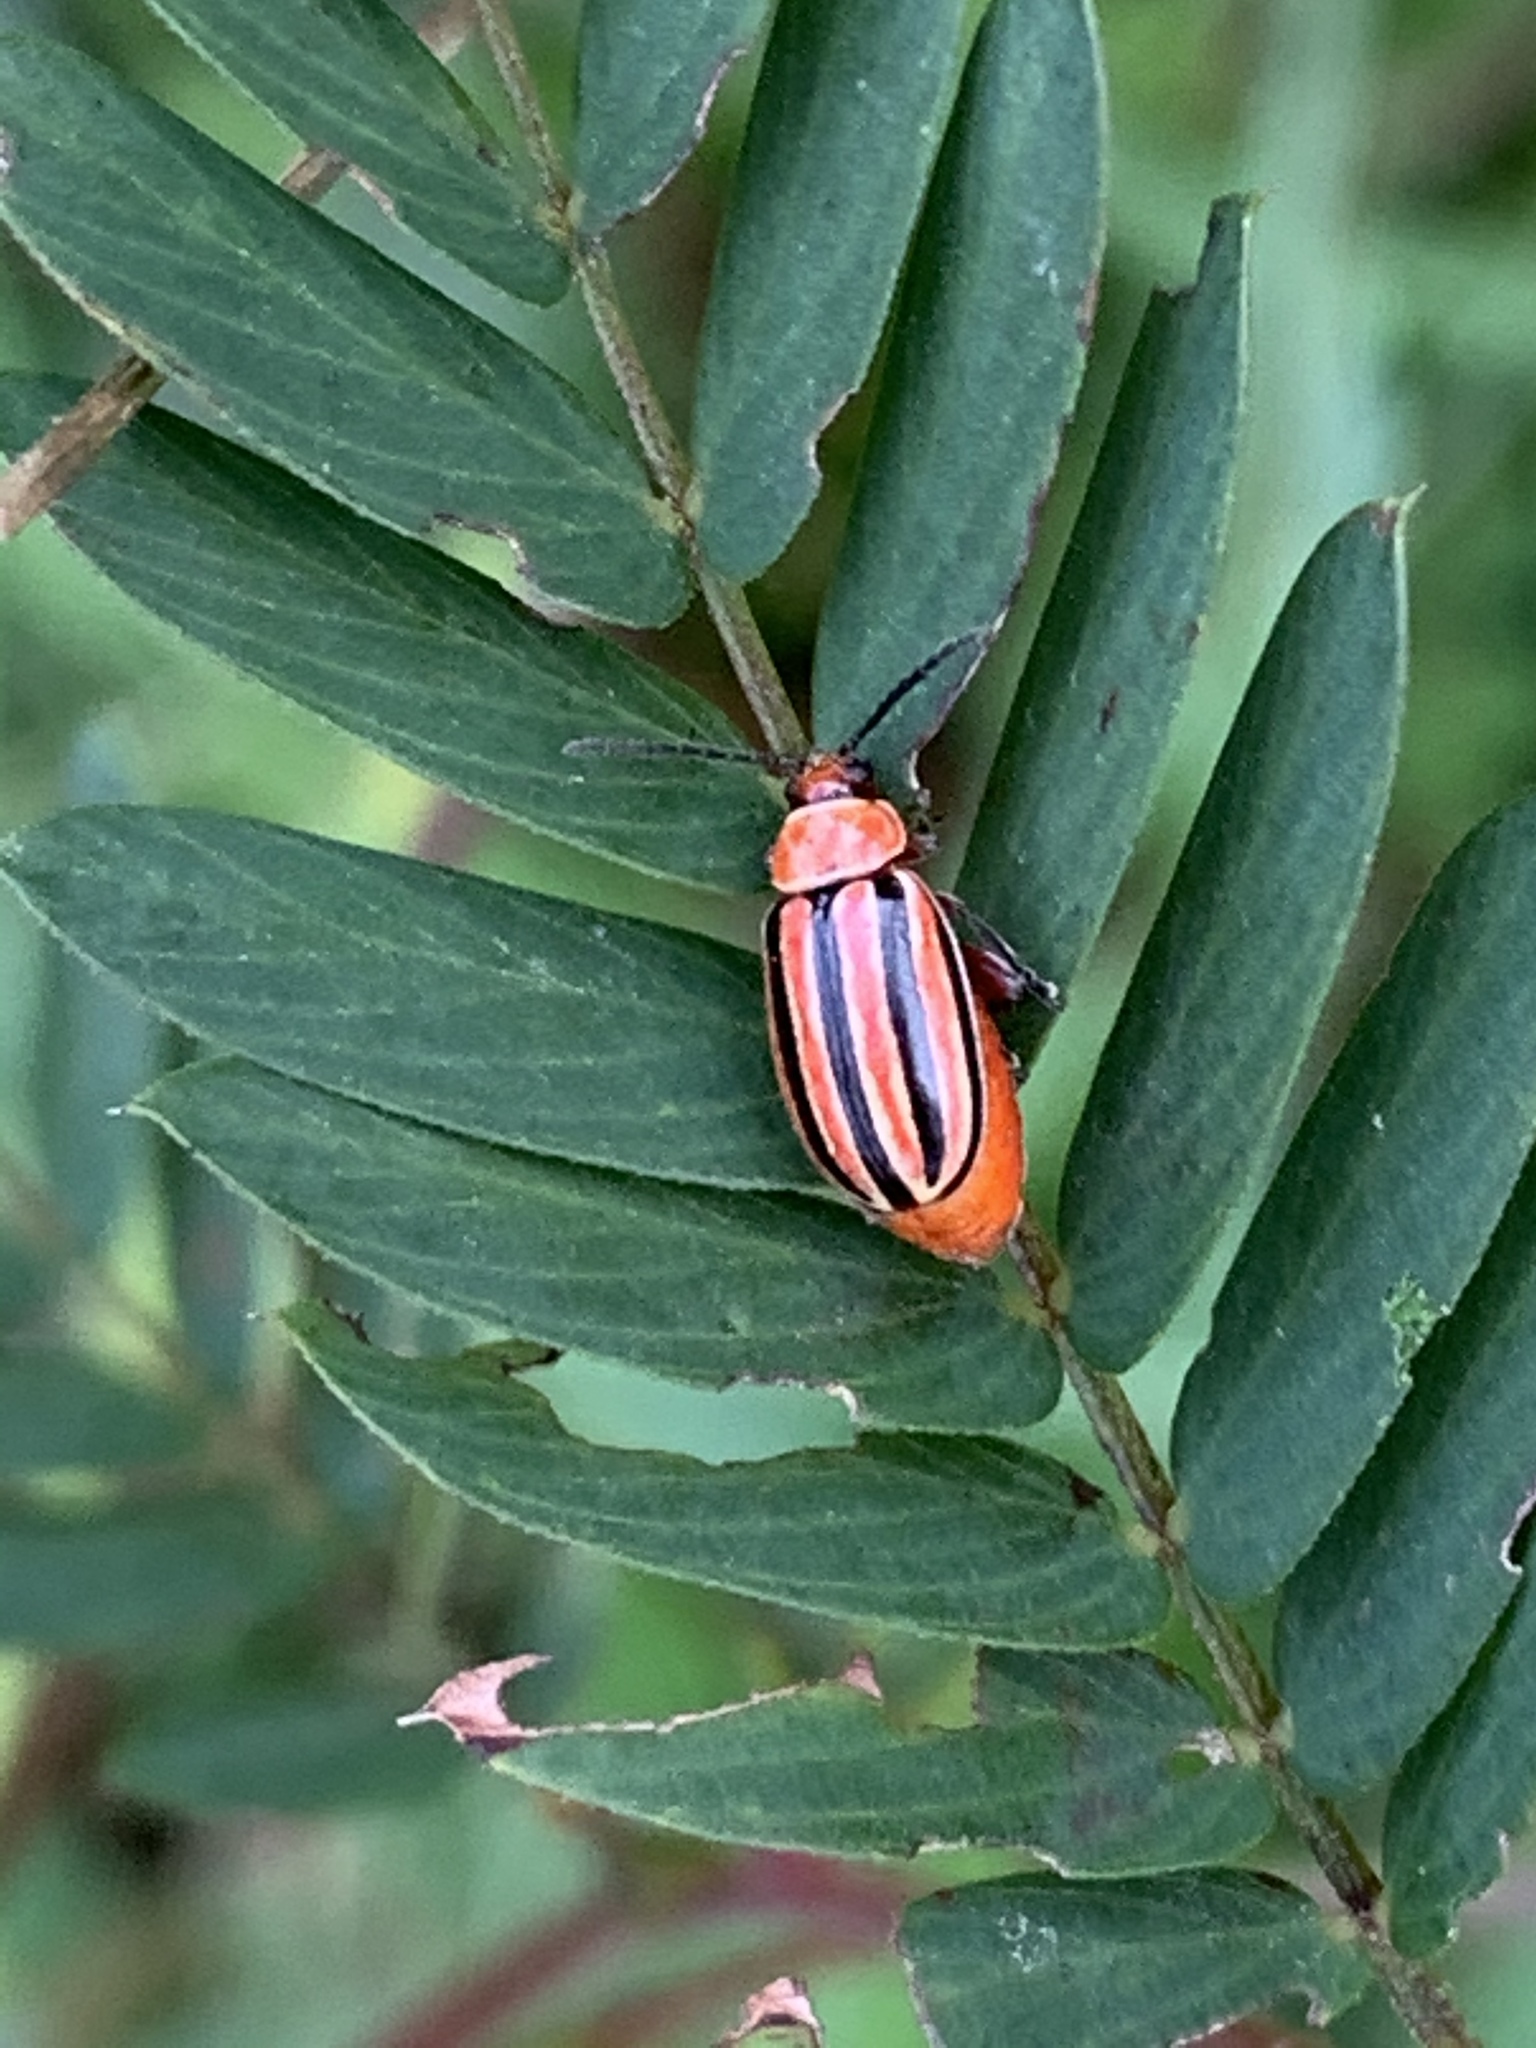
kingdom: Animalia
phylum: Arthropoda
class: Insecta
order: Coleoptera
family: Chrysomelidae
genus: Disonycha
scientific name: Disonycha admirabila
